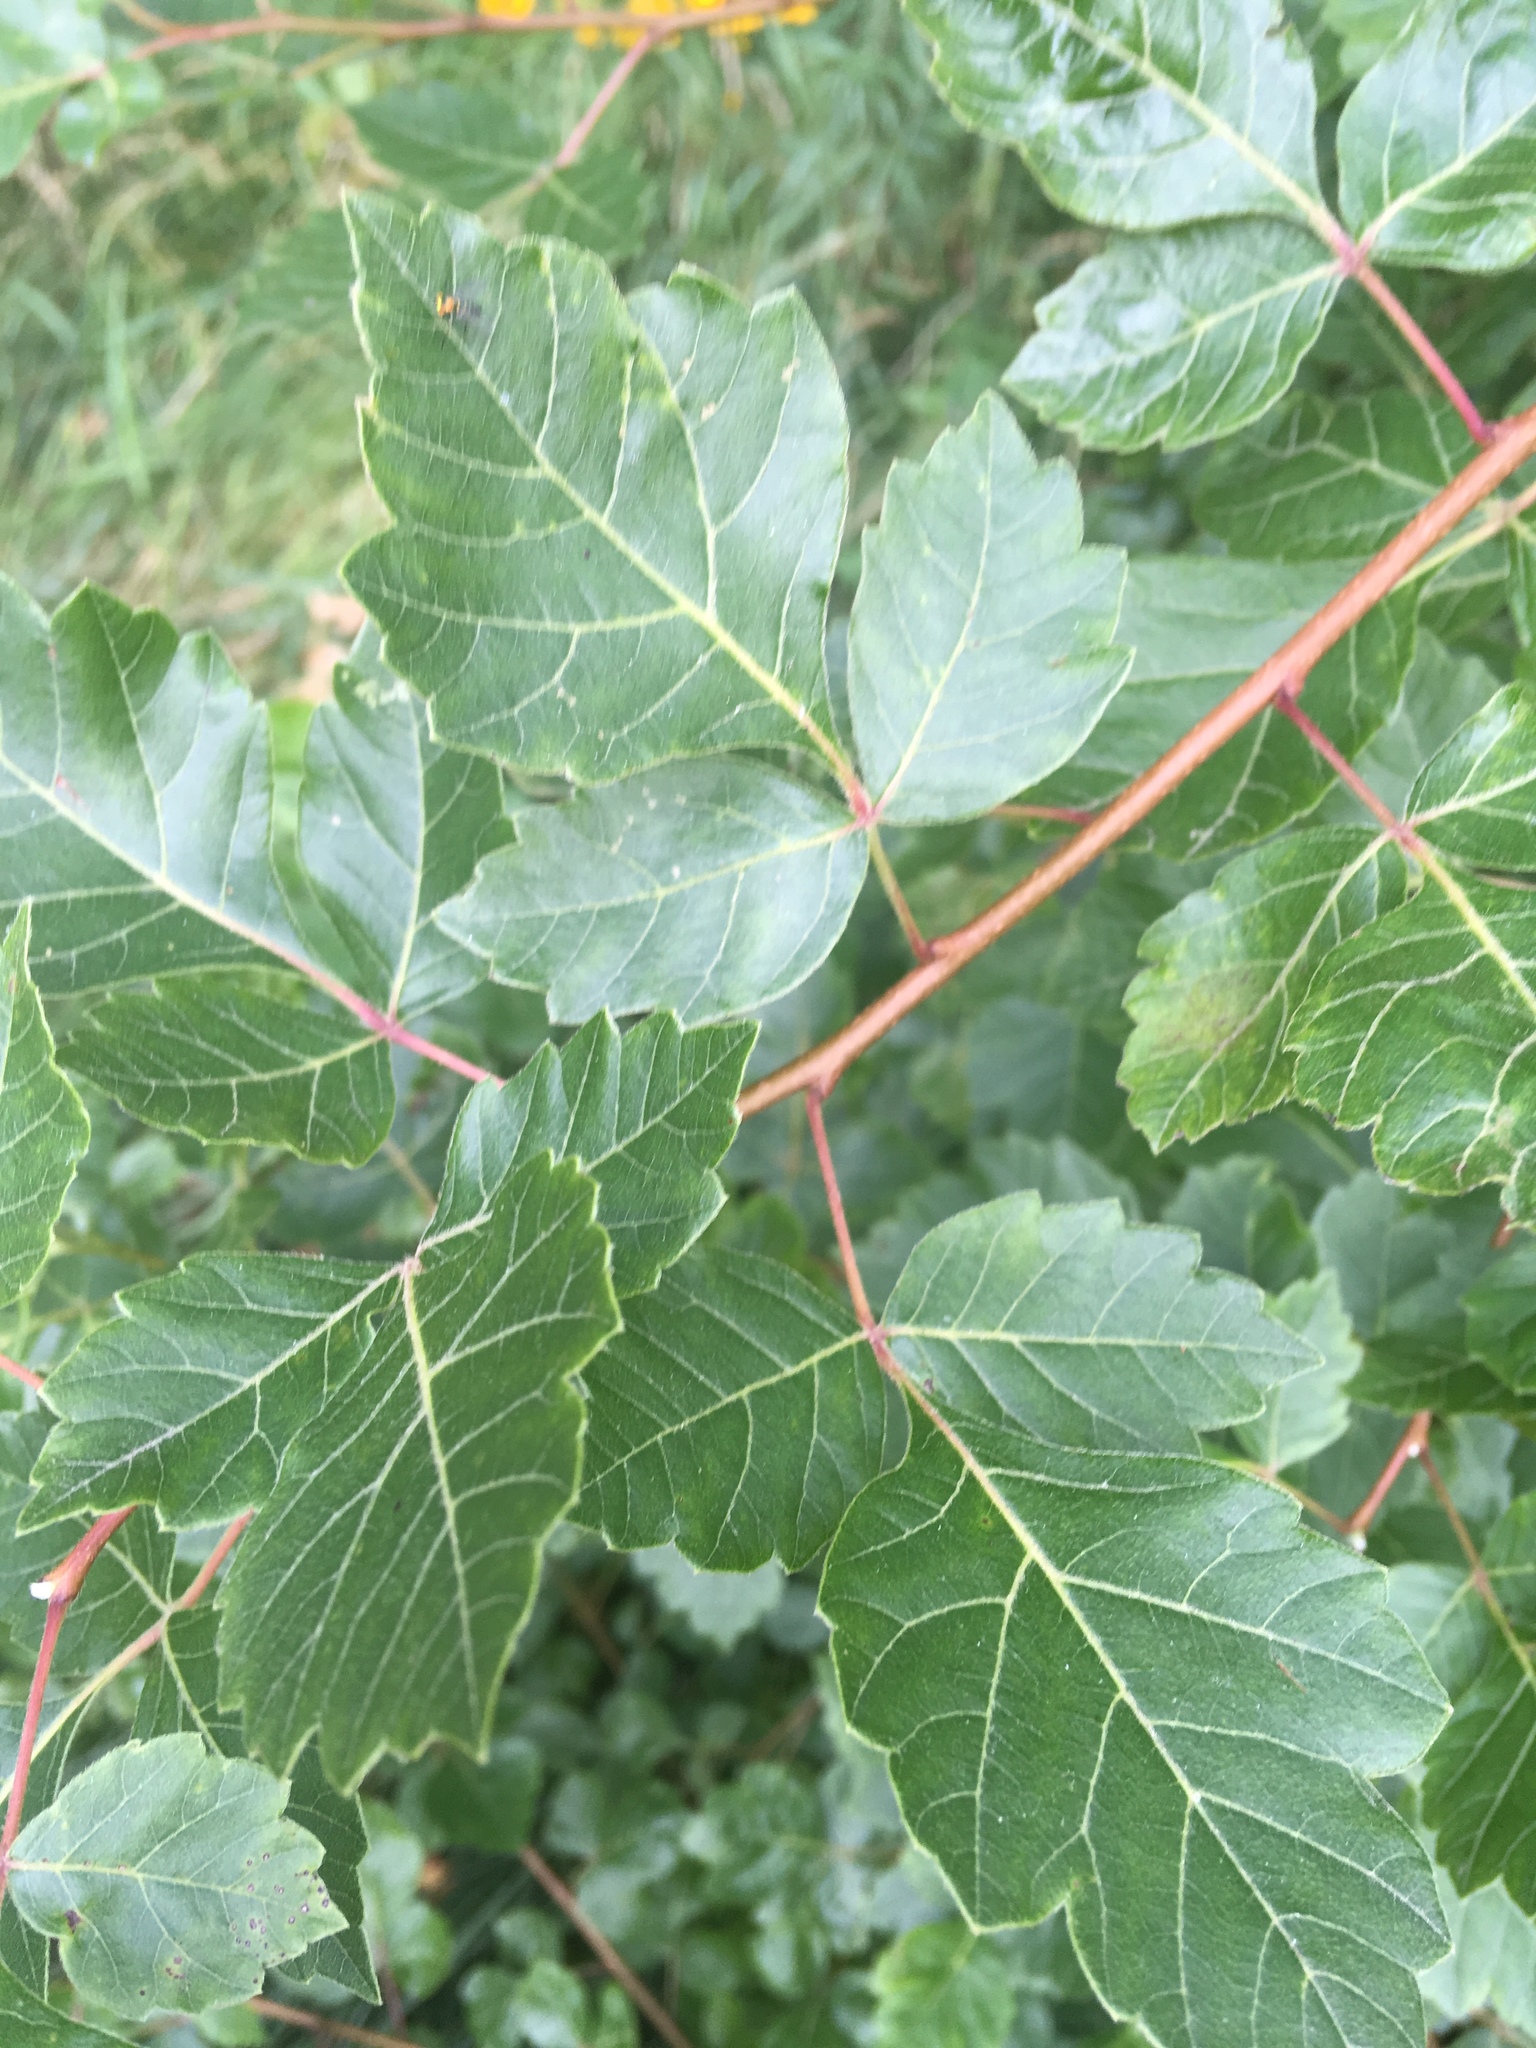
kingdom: Plantae
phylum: Tracheophyta
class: Magnoliopsida
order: Sapindales
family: Anacardiaceae
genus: Rhus
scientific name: Rhus aromatica
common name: Aromatic sumac
